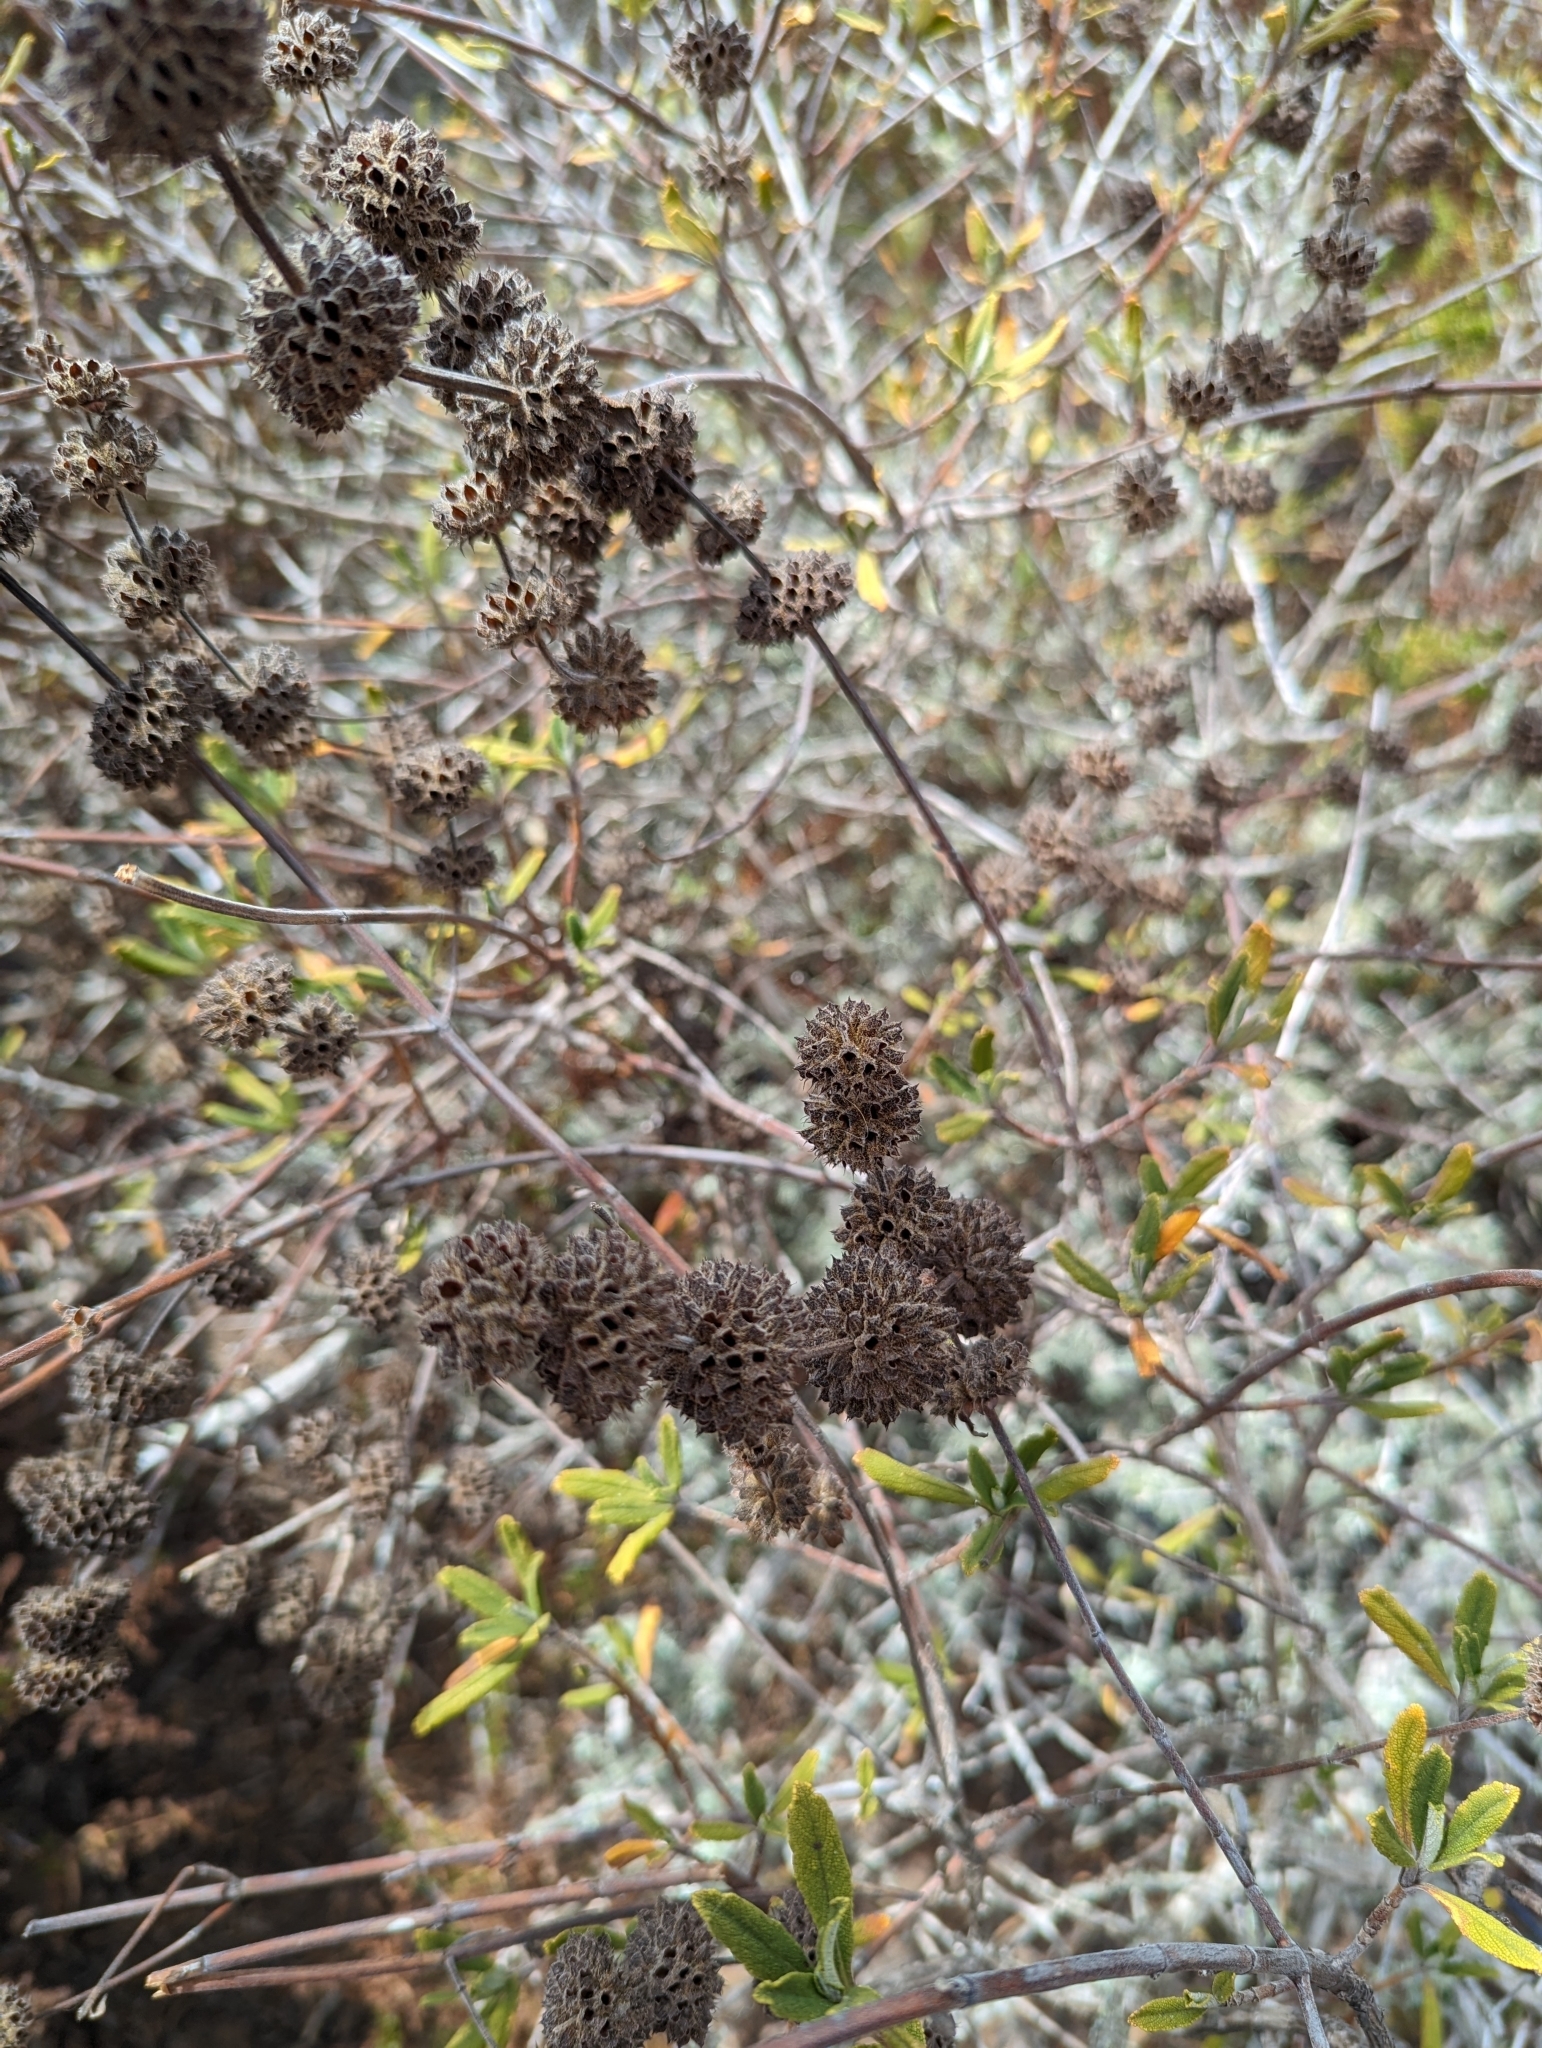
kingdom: Plantae
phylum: Tracheophyta
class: Magnoliopsida
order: Lamiales
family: Lamiaceae
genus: Salvia
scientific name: Salvia mellifera
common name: Black sage
